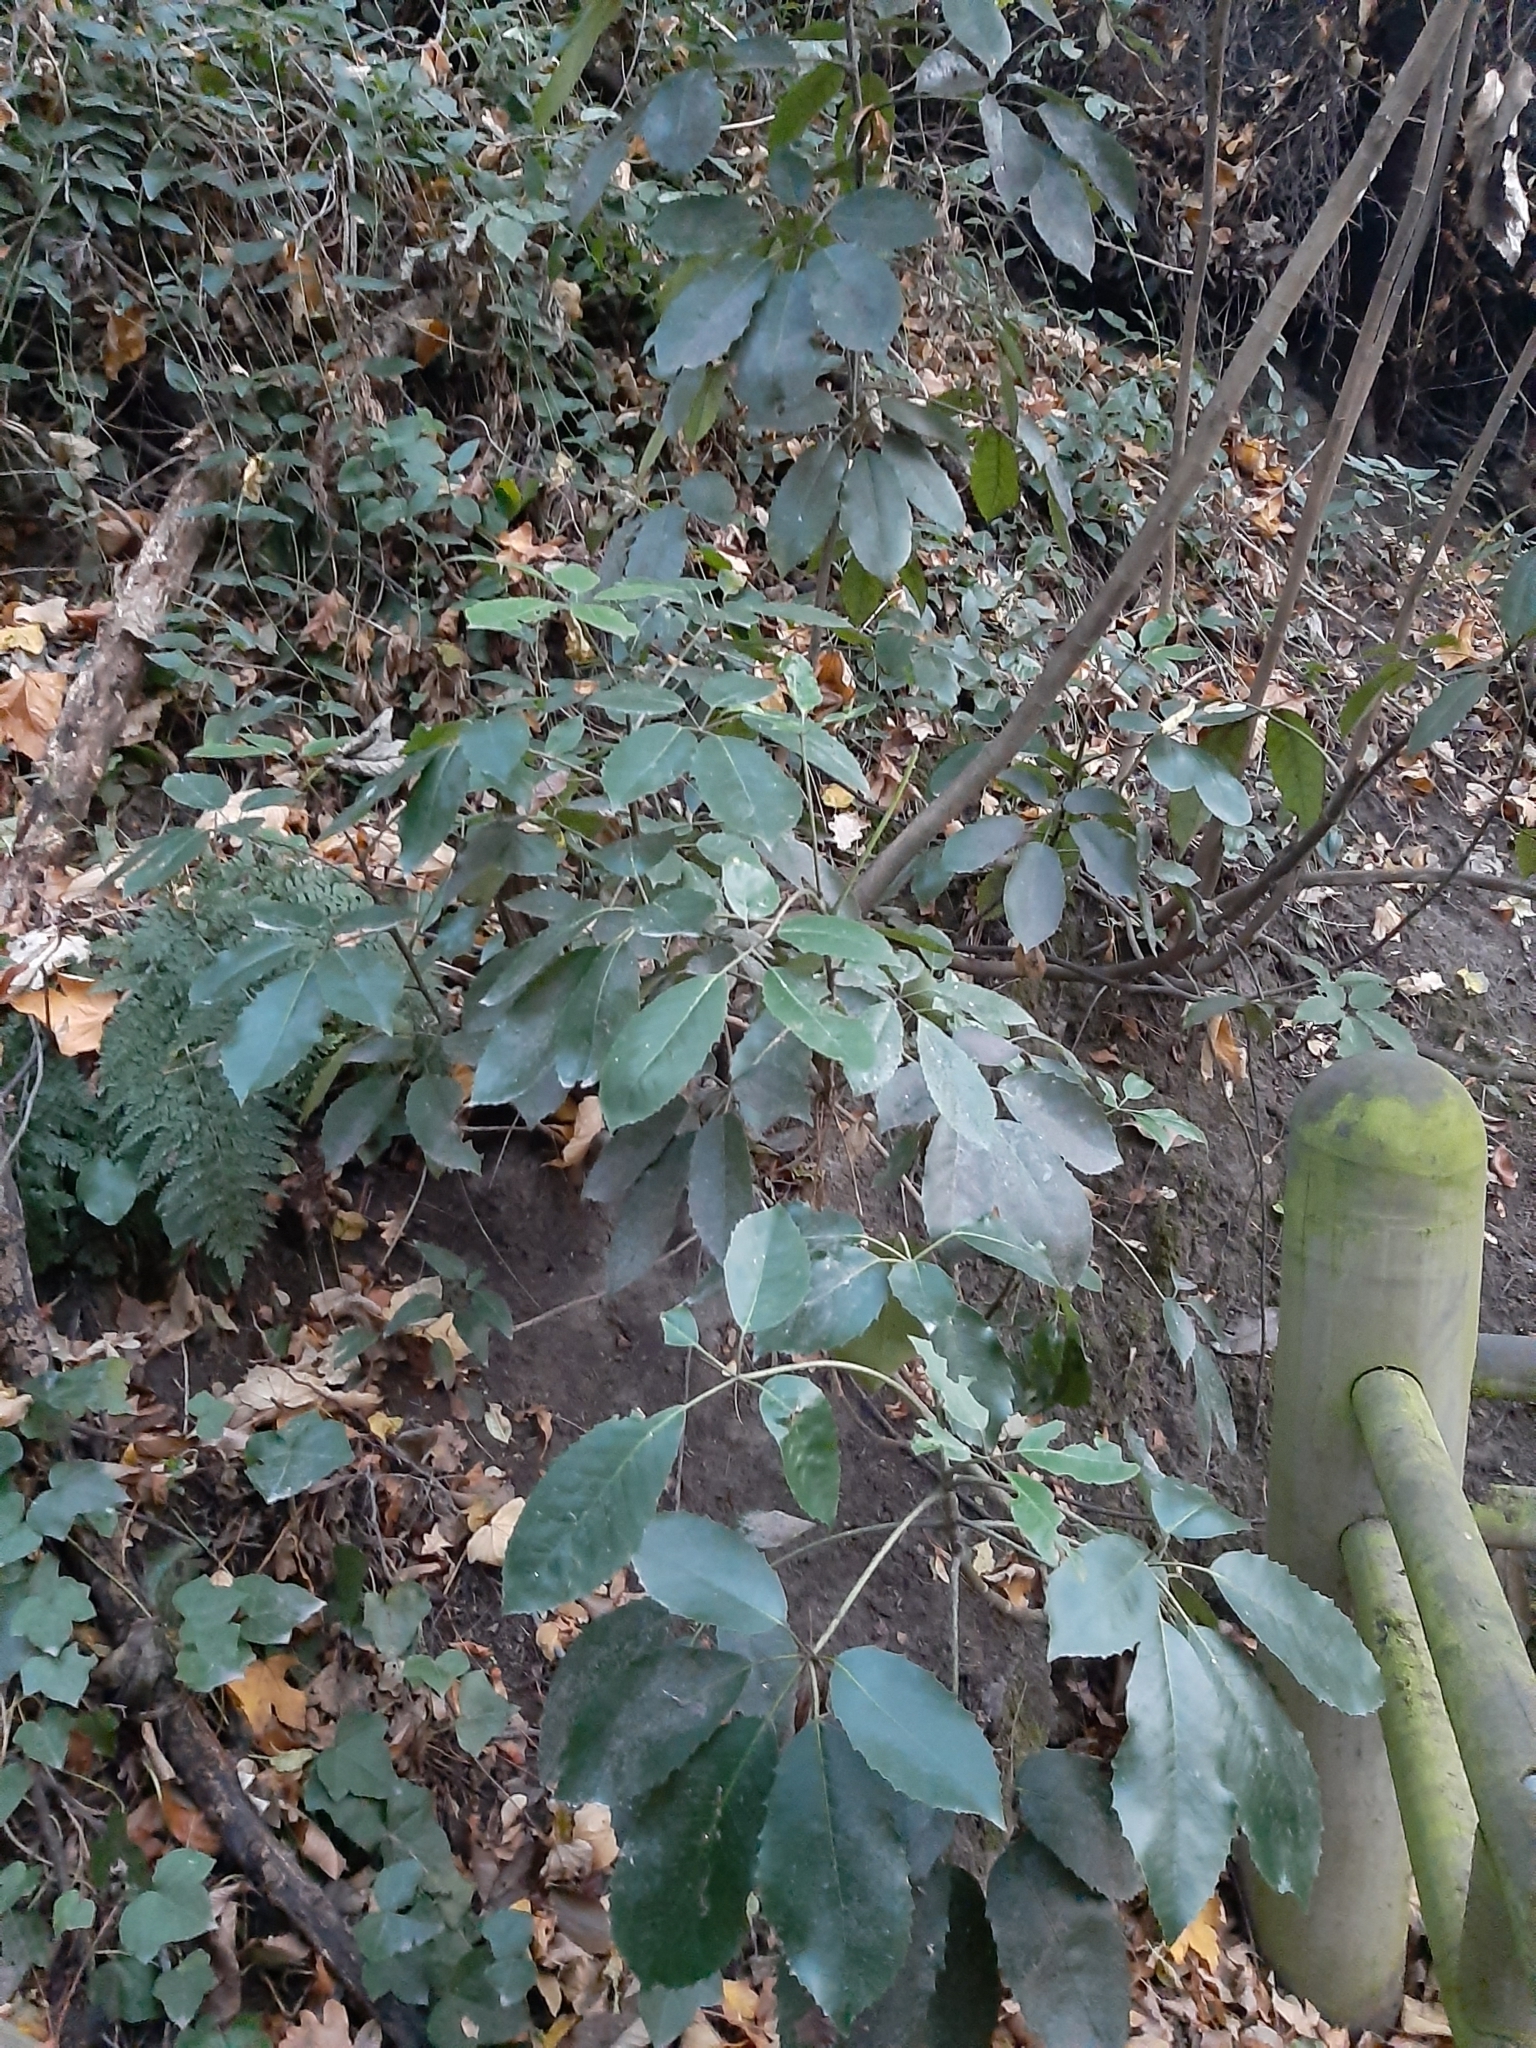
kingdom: Plantae
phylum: Tracheophyta
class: Magnoliopsida
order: Apiales
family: Araliaceae
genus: Neopanax
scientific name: Neopanax arboreus
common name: Five-fingers
